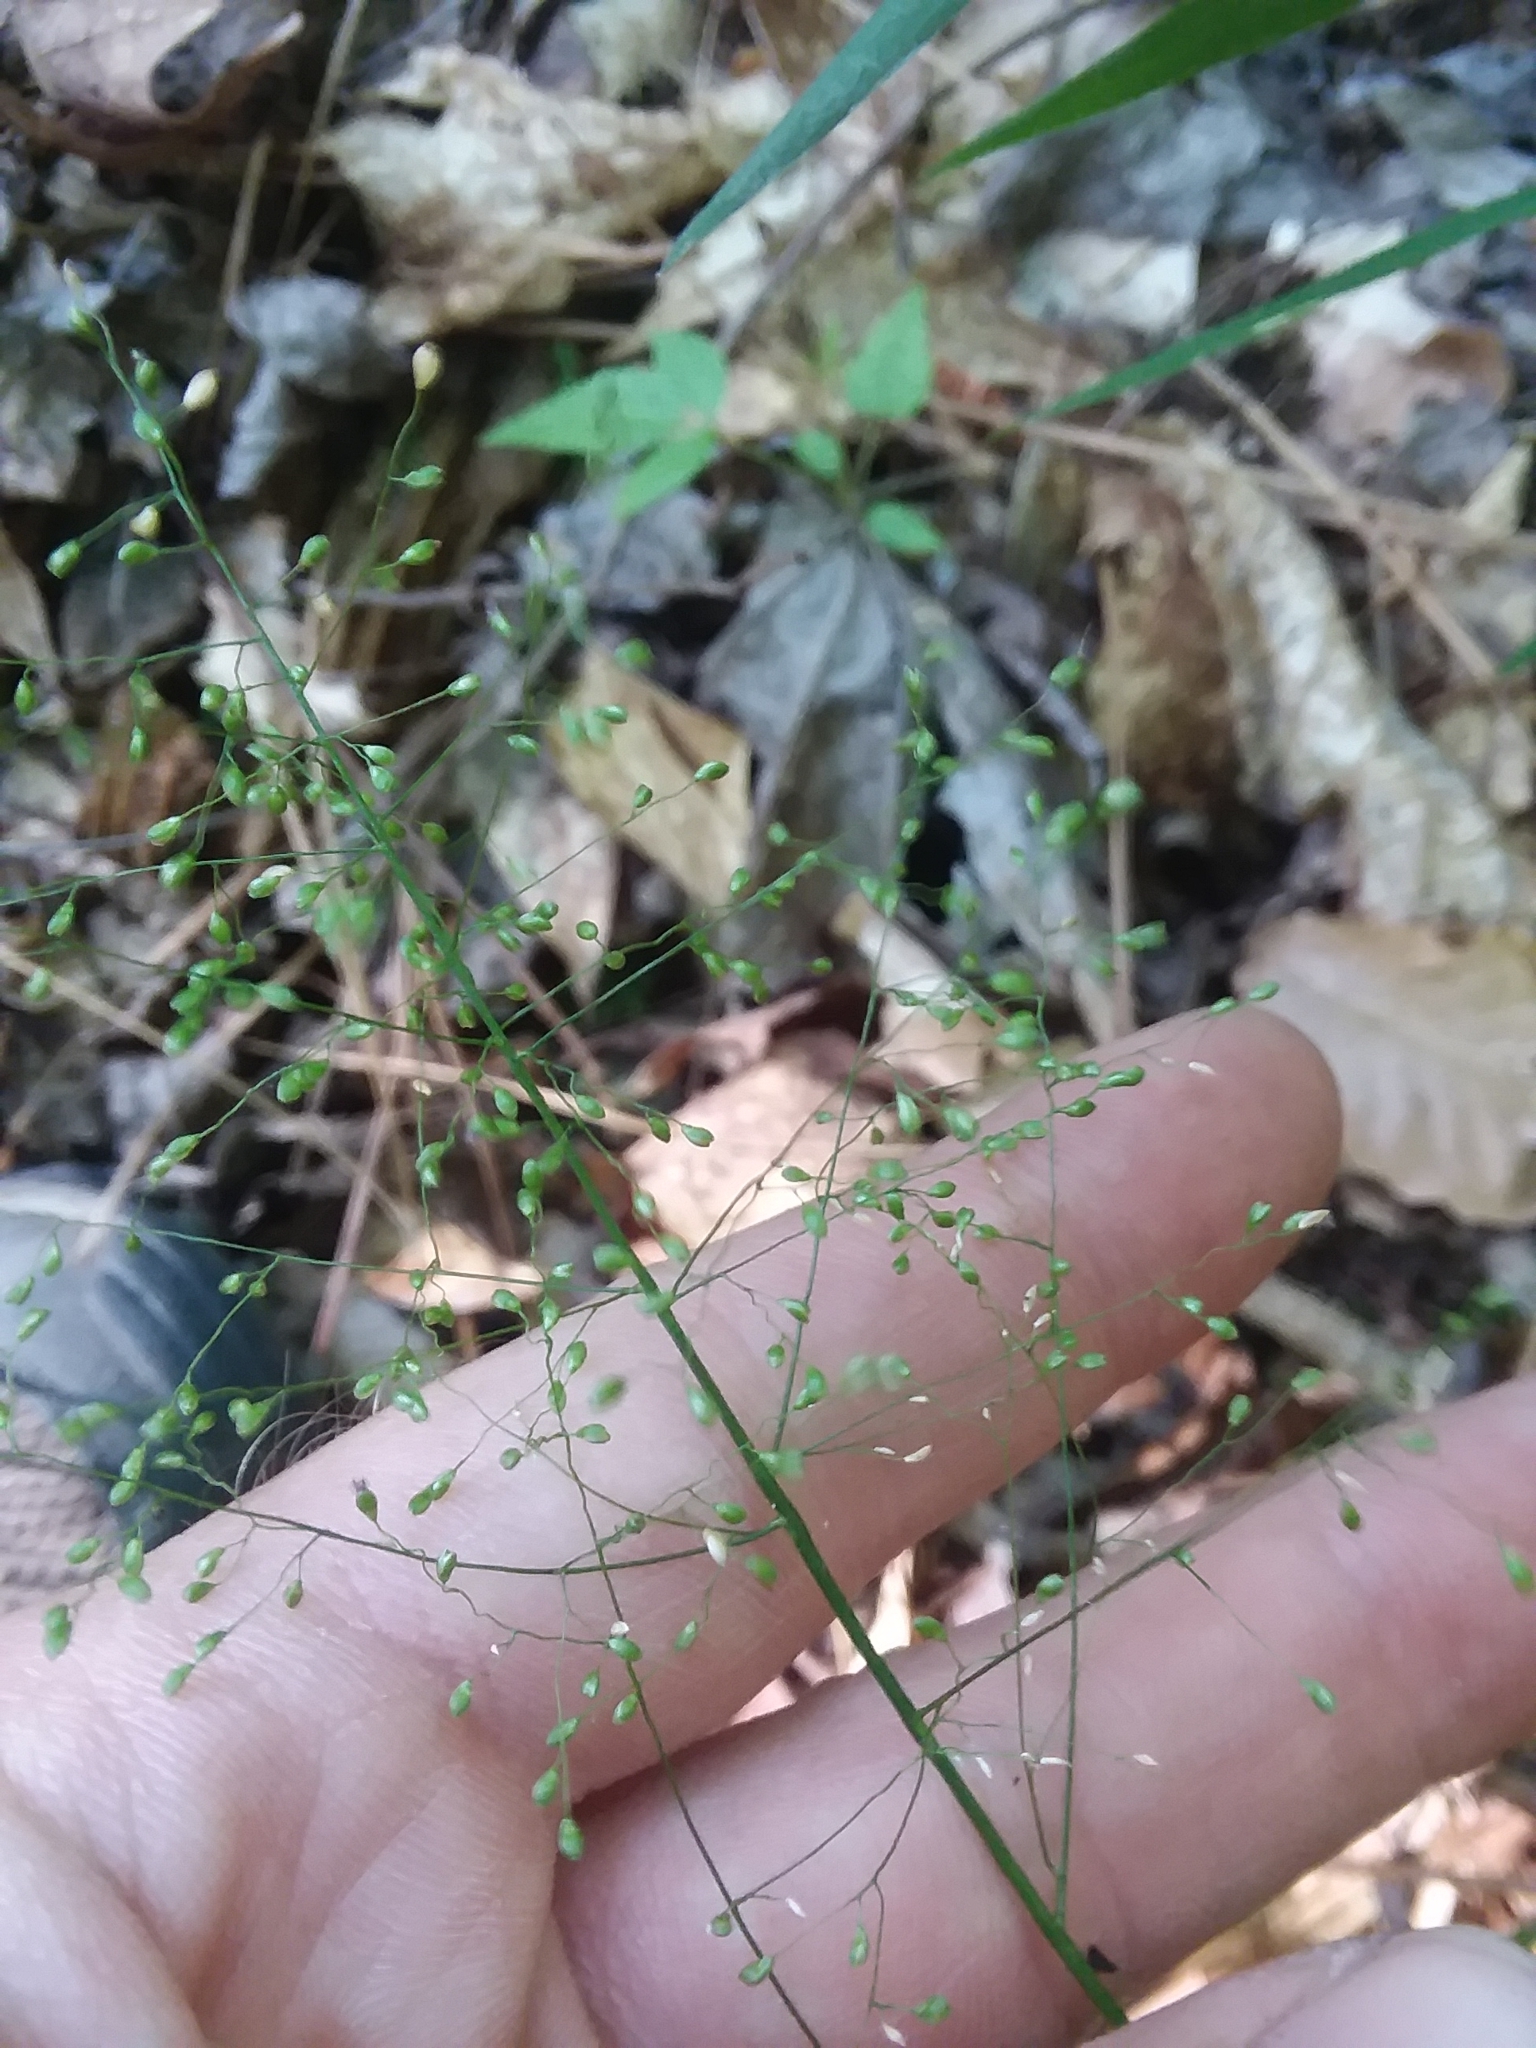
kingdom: Plantae
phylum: Tracheophyta
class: Liliopsida
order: Poales
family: Poaceae
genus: Dichanthelium
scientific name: Dichanthelium microcarpon
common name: Small-fruited witchgrass
